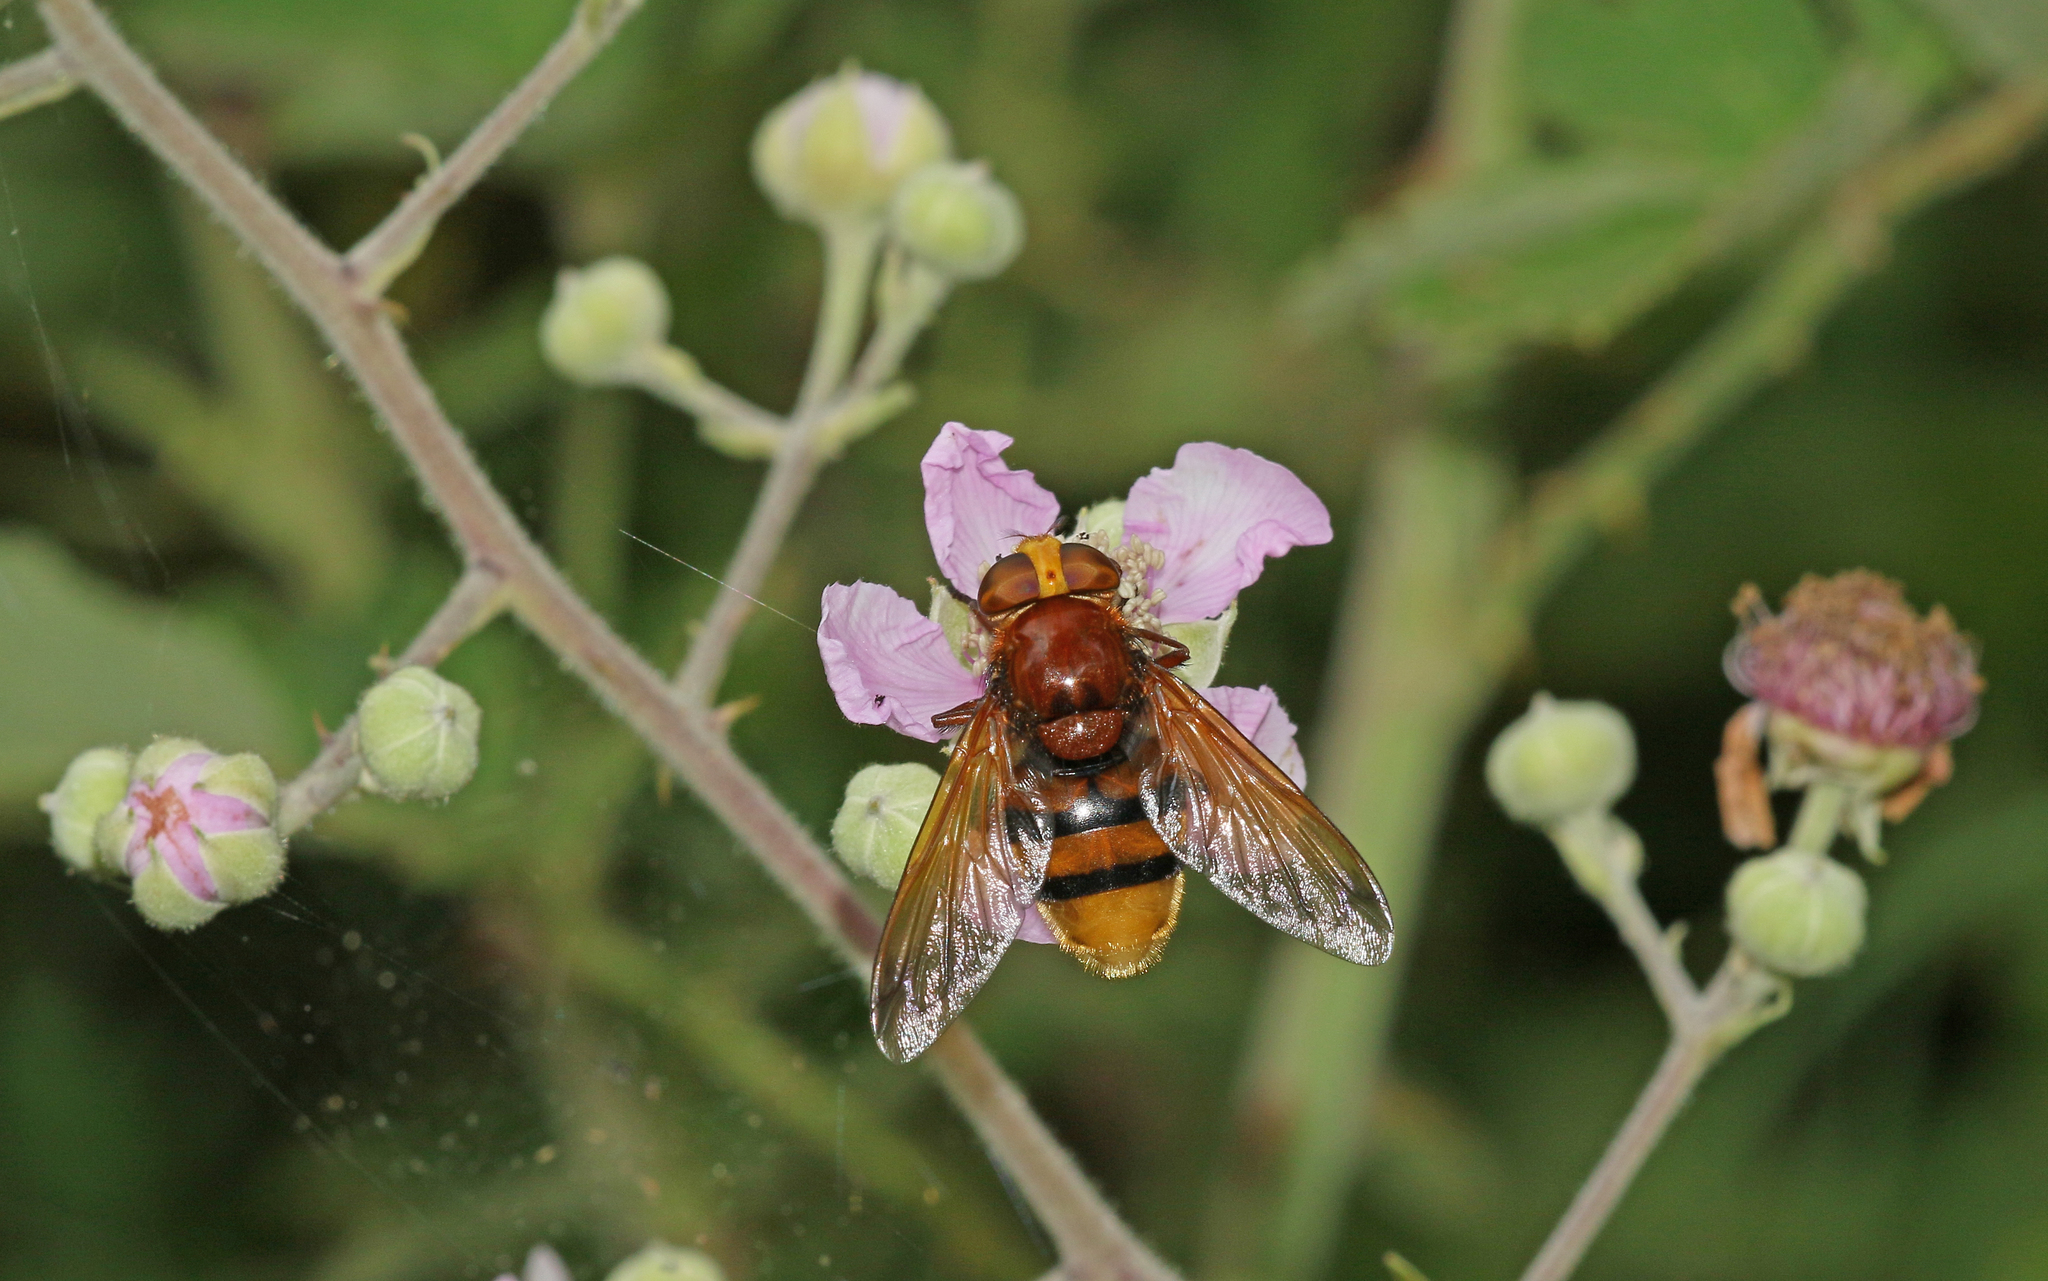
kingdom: Animalia
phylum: Arthropoda
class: Insecta
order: Diptera
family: Syrphidae
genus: Volucella
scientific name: Volucella zonaria
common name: Hornet hoverfly
